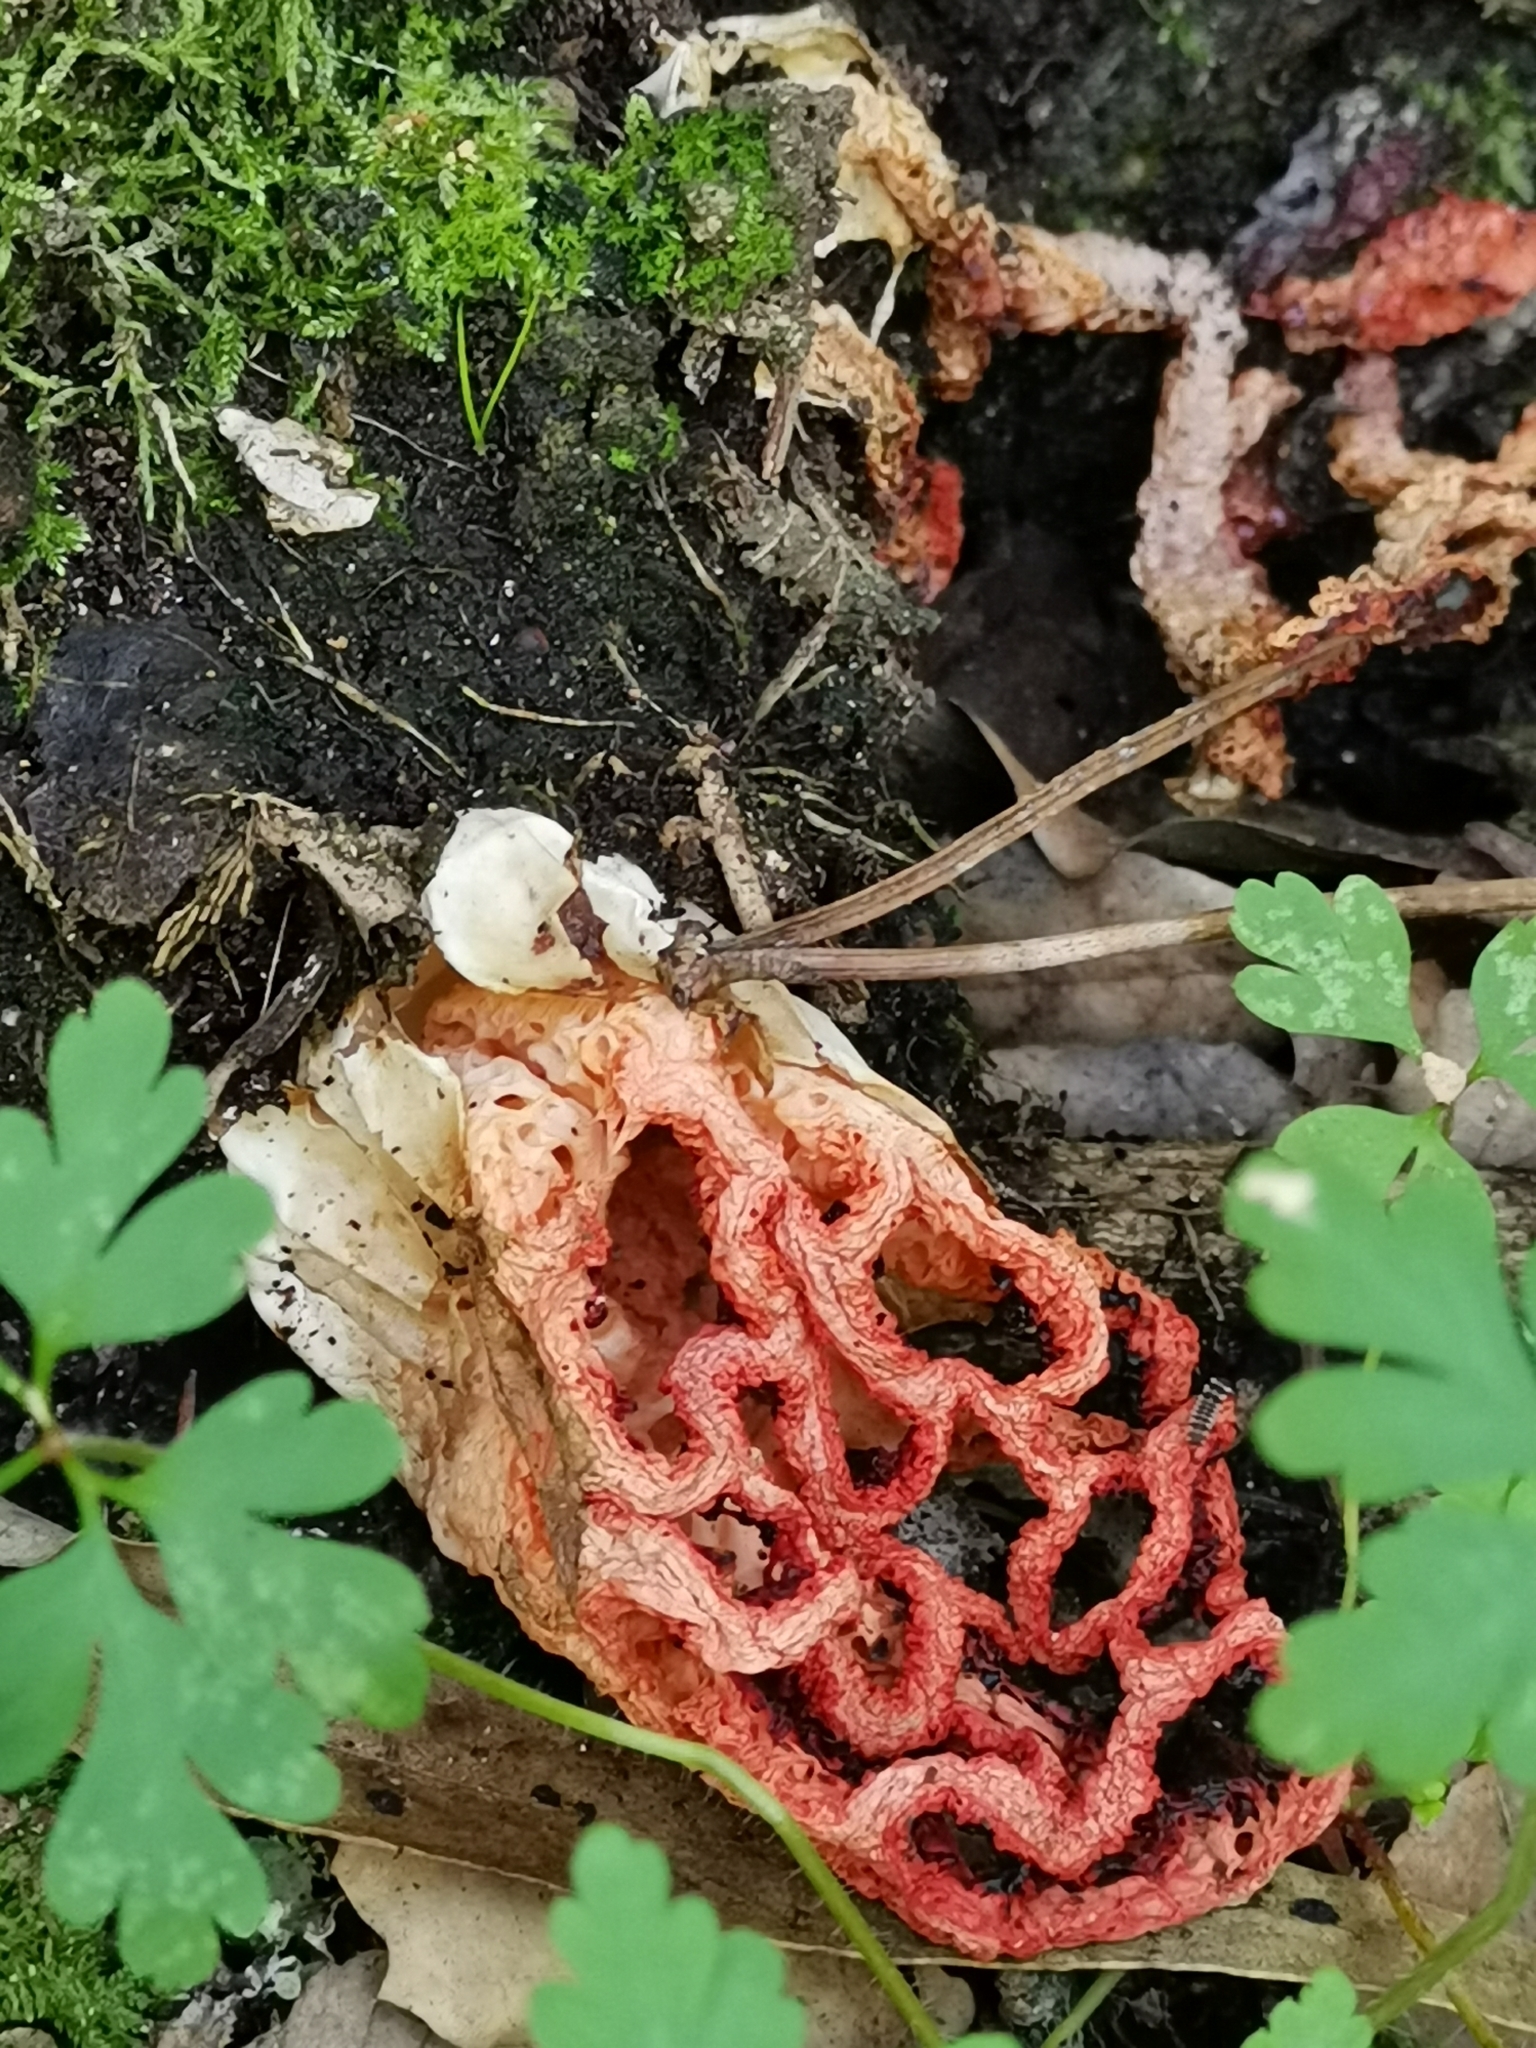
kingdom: Fungi
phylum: Basidiomycota
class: Agaricomycetes
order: Phallales
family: Phallaceae
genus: Clathrus
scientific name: Clathrus ruber
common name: Red cage
